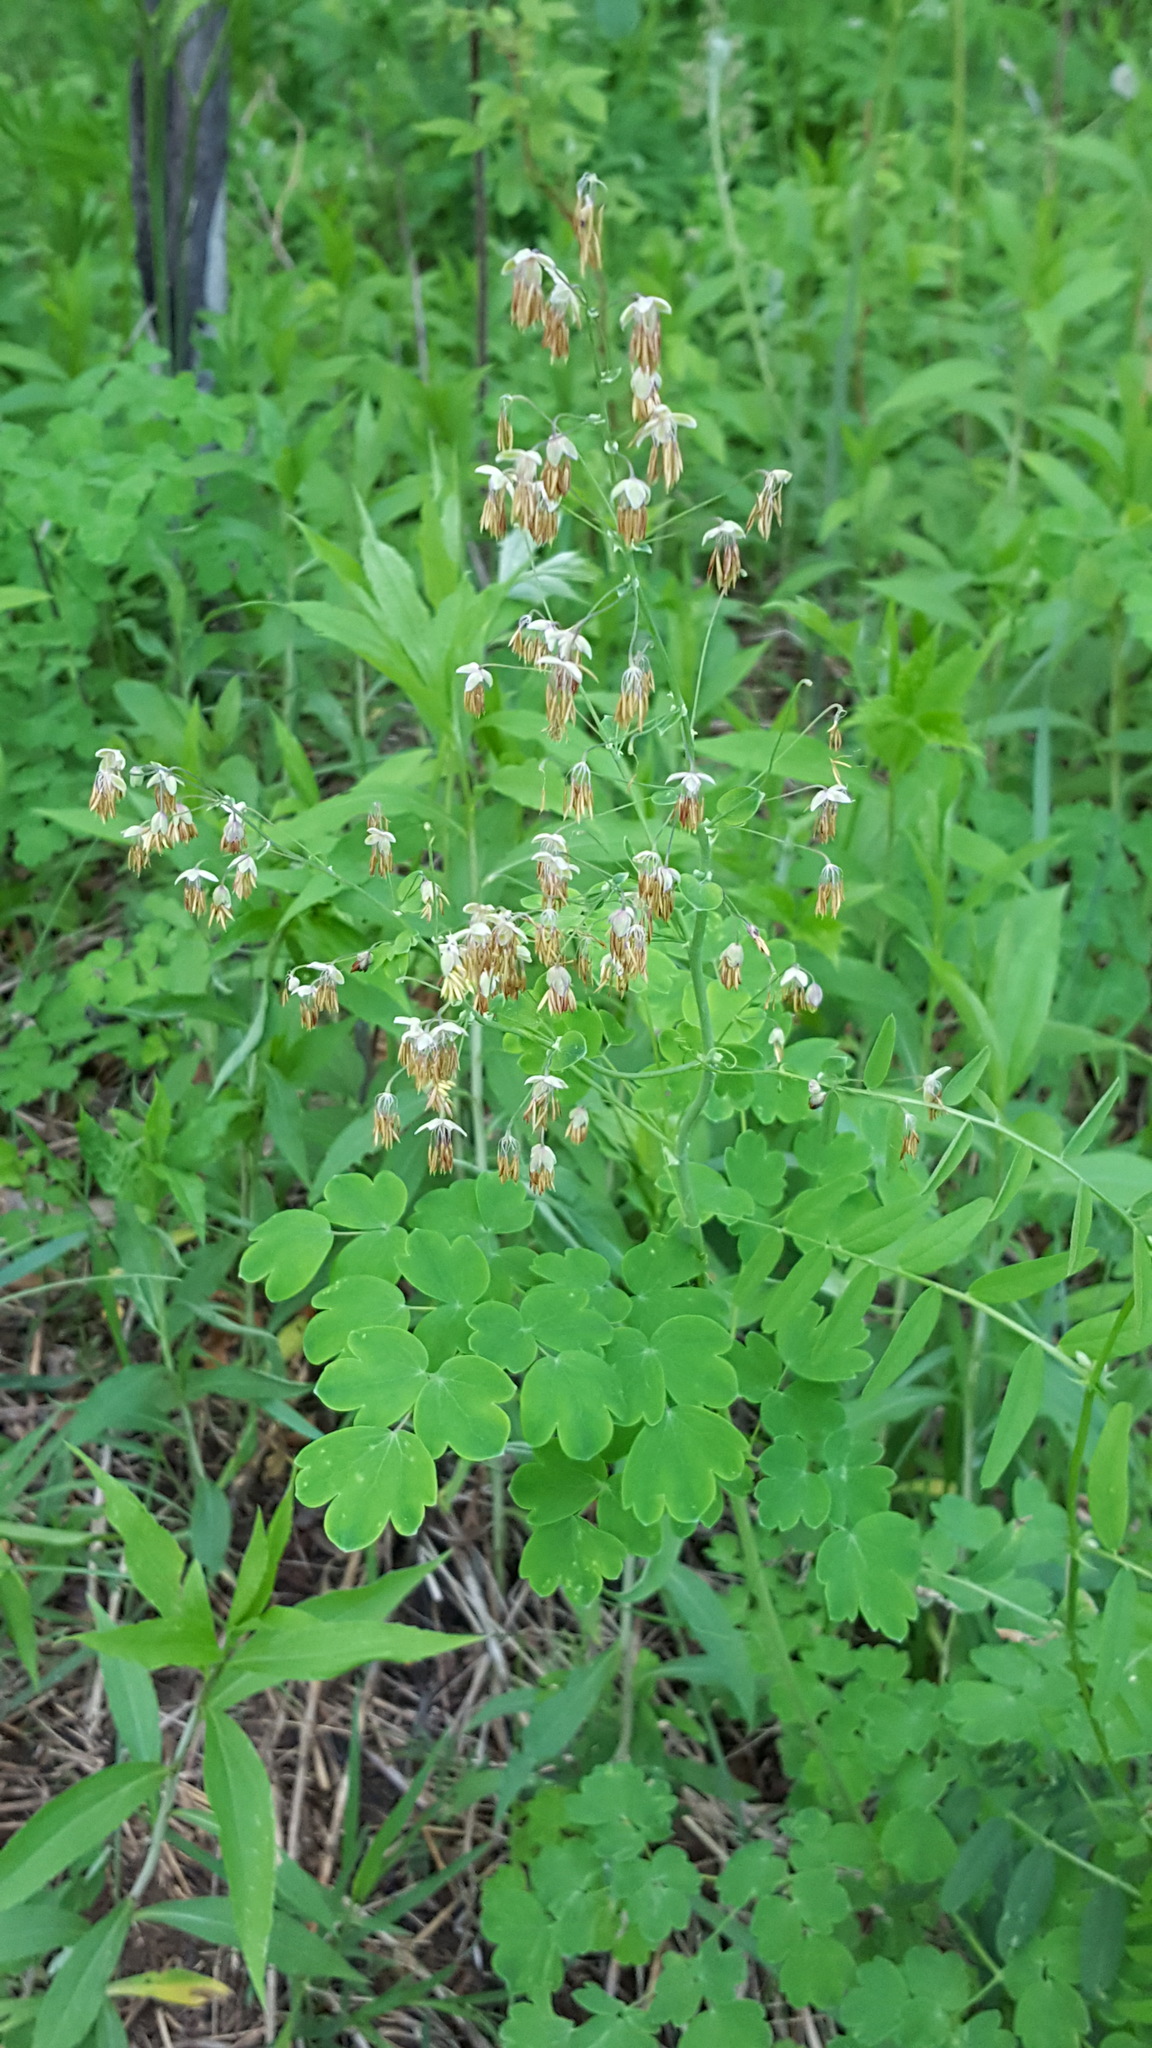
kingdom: Plantae
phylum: Tracheophyta
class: Magnoliopsida
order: Ranunculales
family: Ranunculaceae
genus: Thalictrum
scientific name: Thalictrum dioicum
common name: Early meadow-rue
